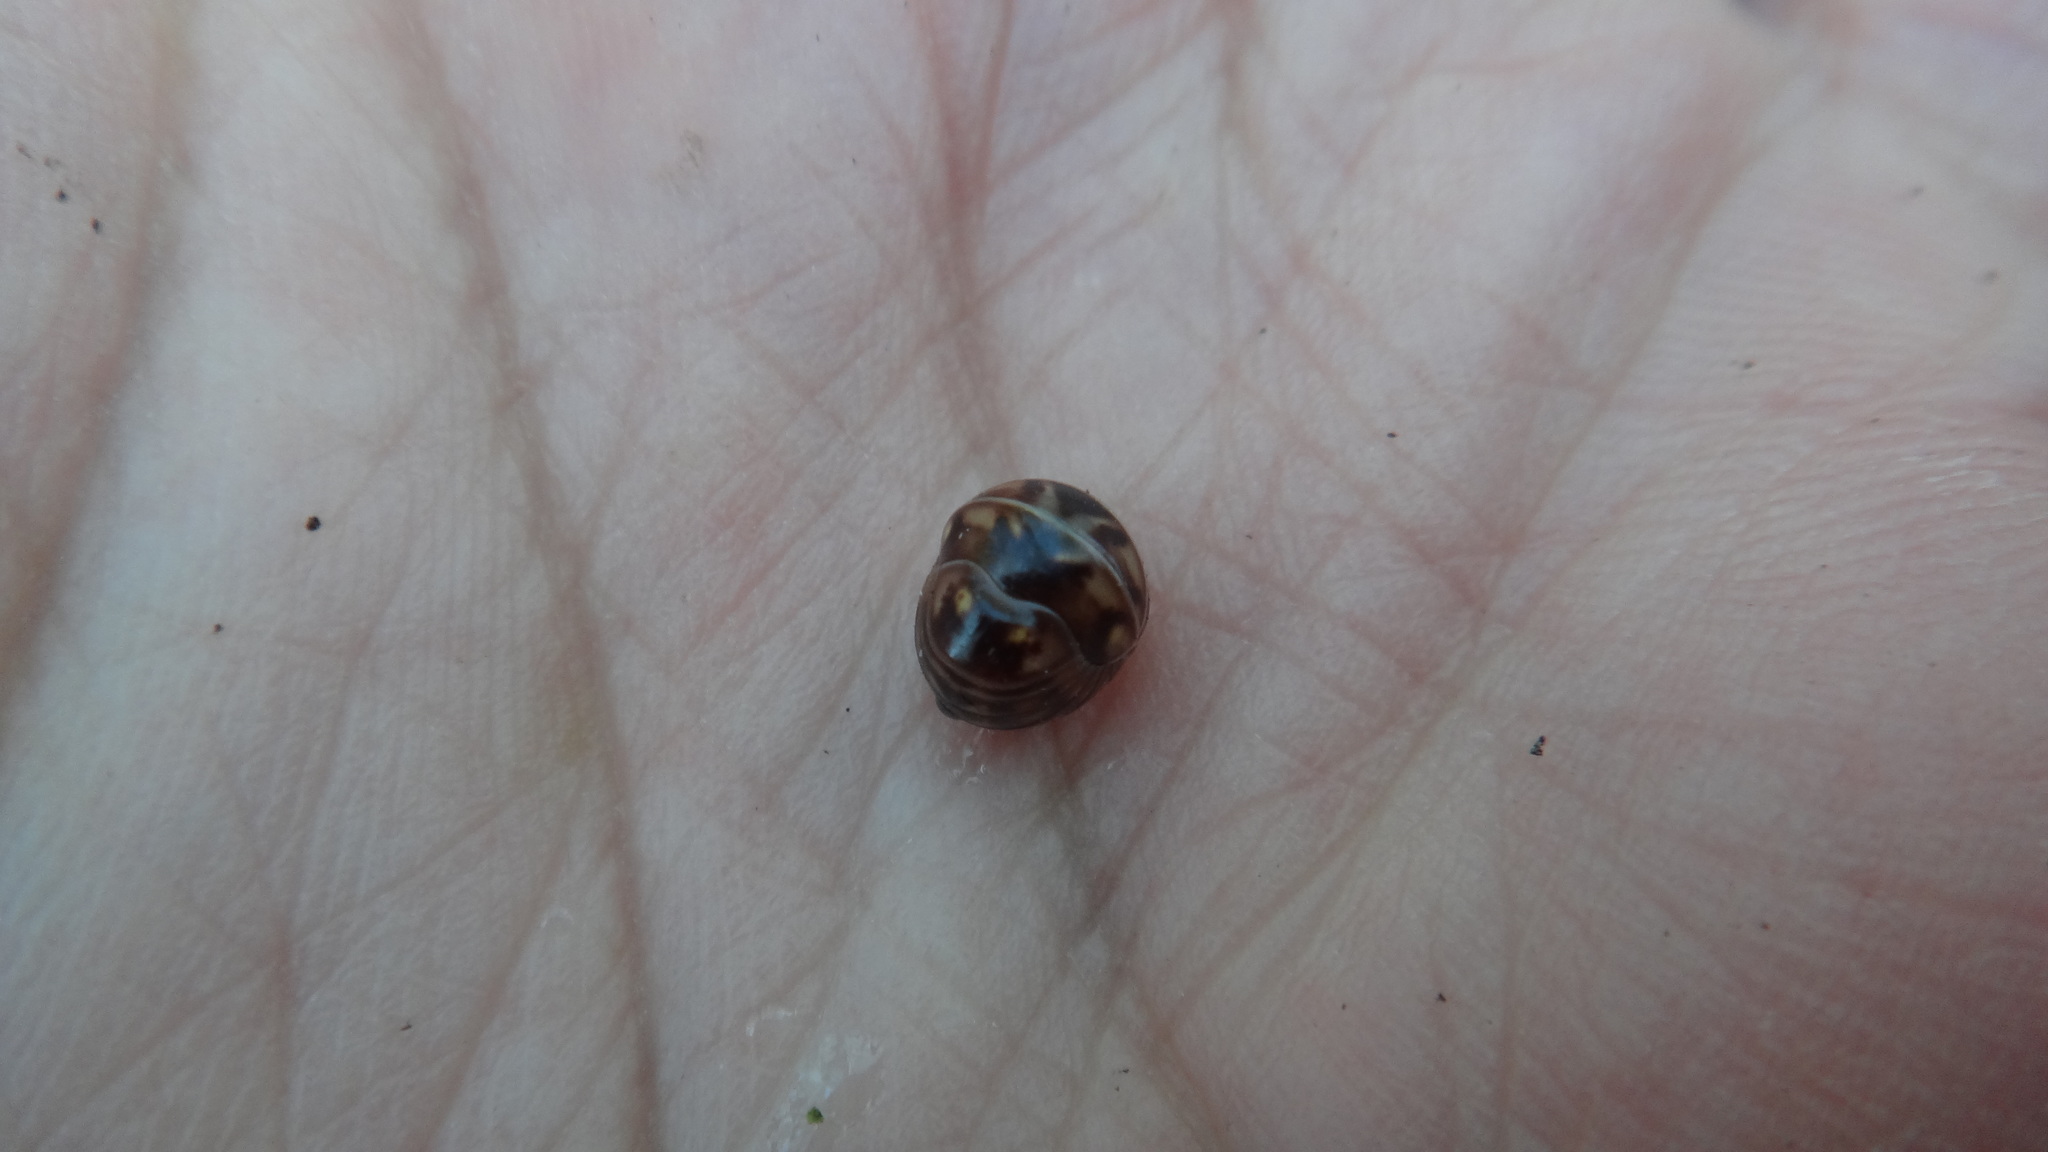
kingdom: Animalia
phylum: Arthropoda
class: Diplopoda
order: Glomerida
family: Glomeridae
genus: Glomeris
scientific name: Glomeris hexasticha
